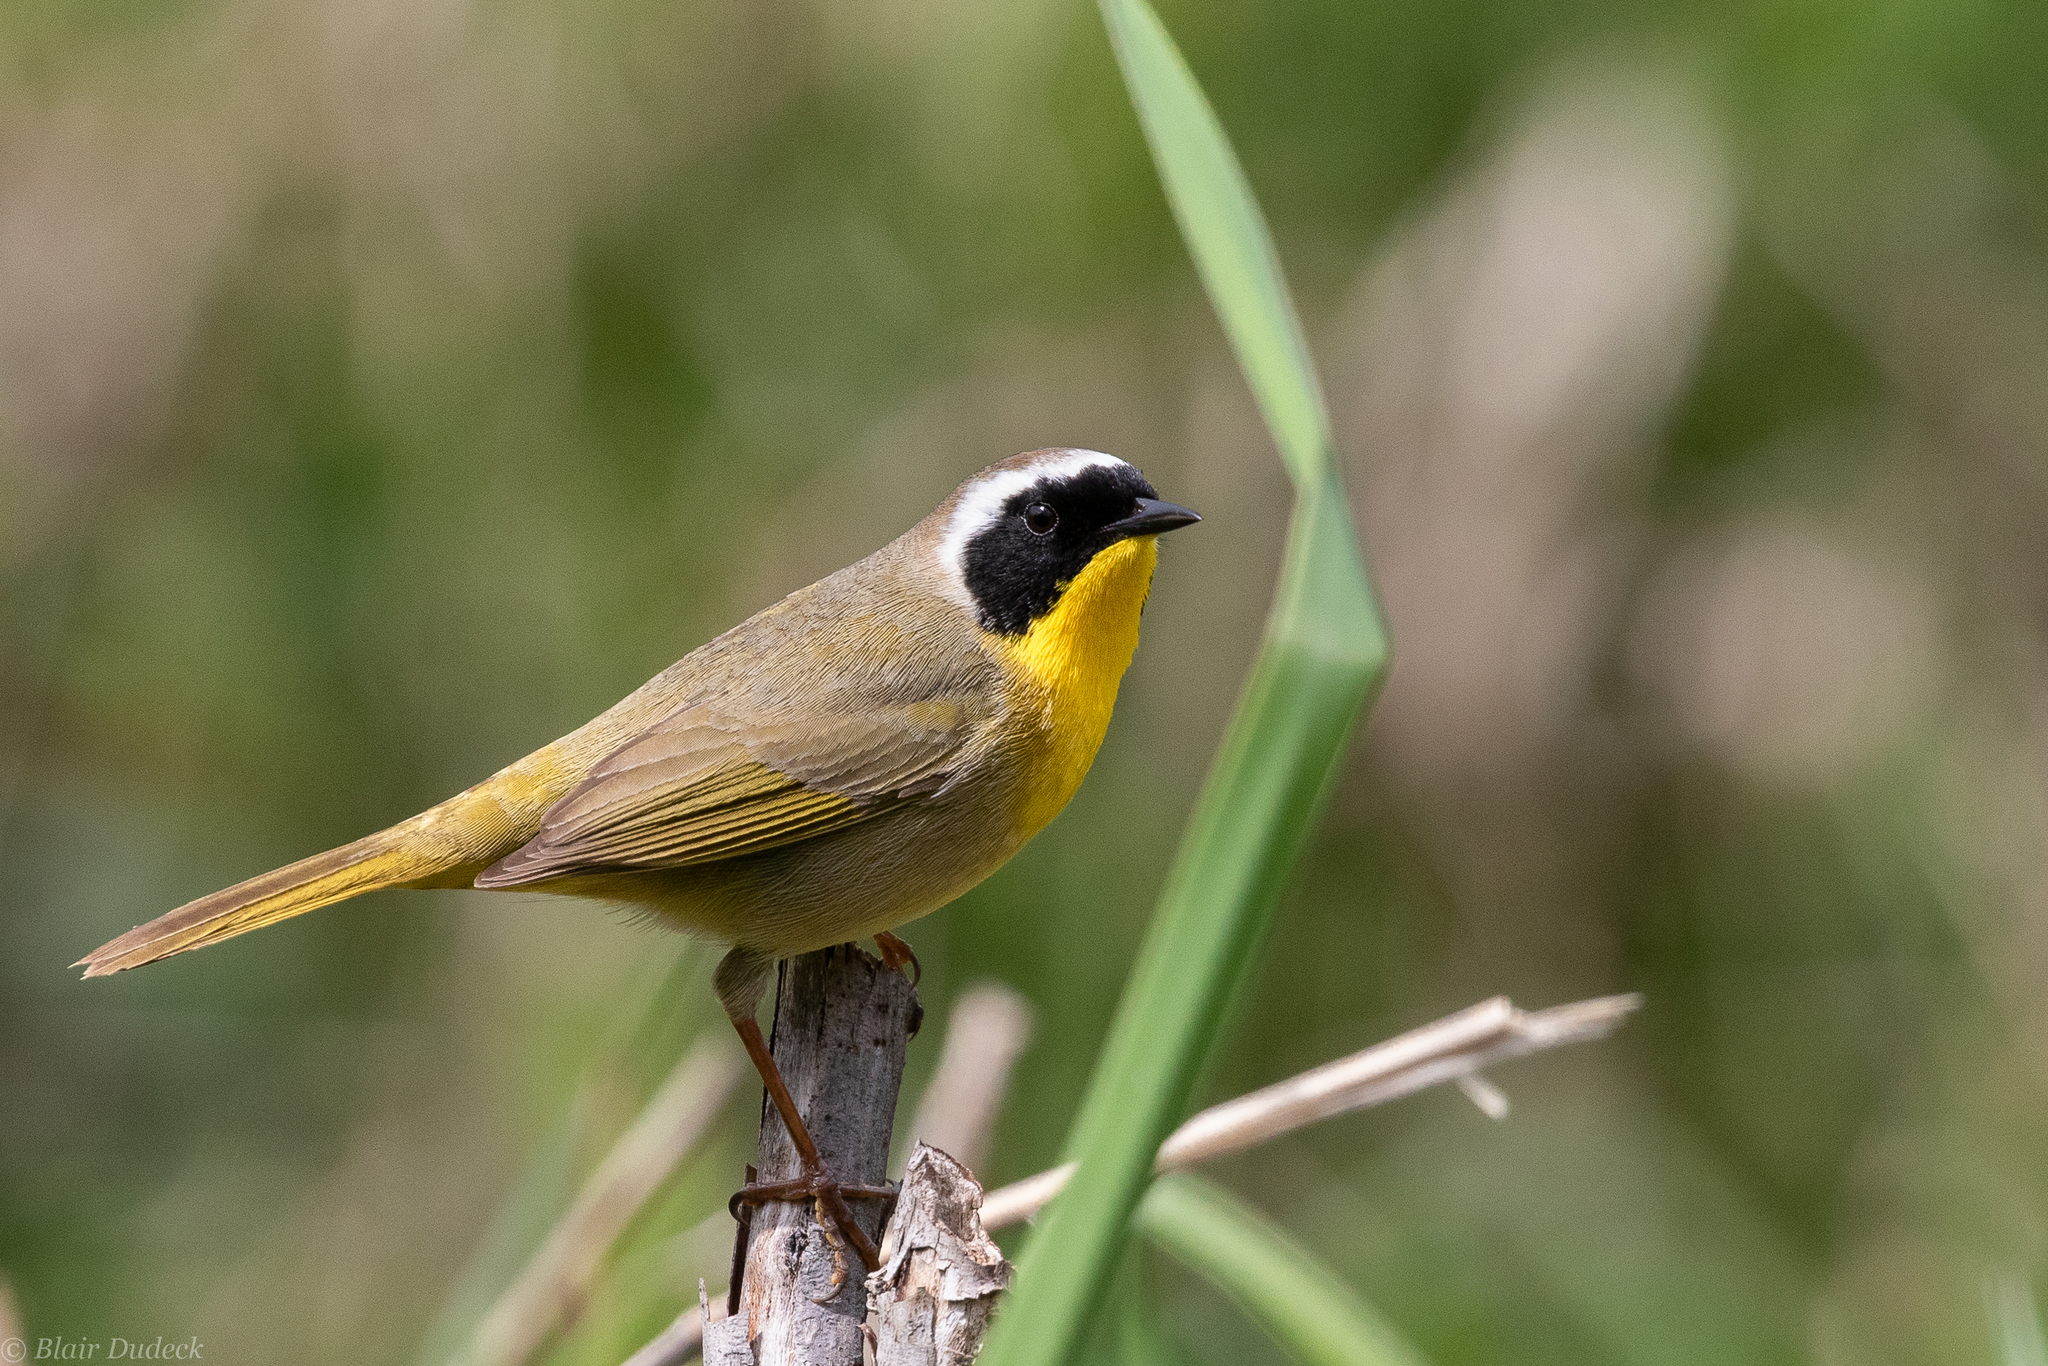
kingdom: Animalia
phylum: Chordata
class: Aves
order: Passeriformes
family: Parulidae
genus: Geothlypis
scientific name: Geothlypis trichas
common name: Common yellowthroat
